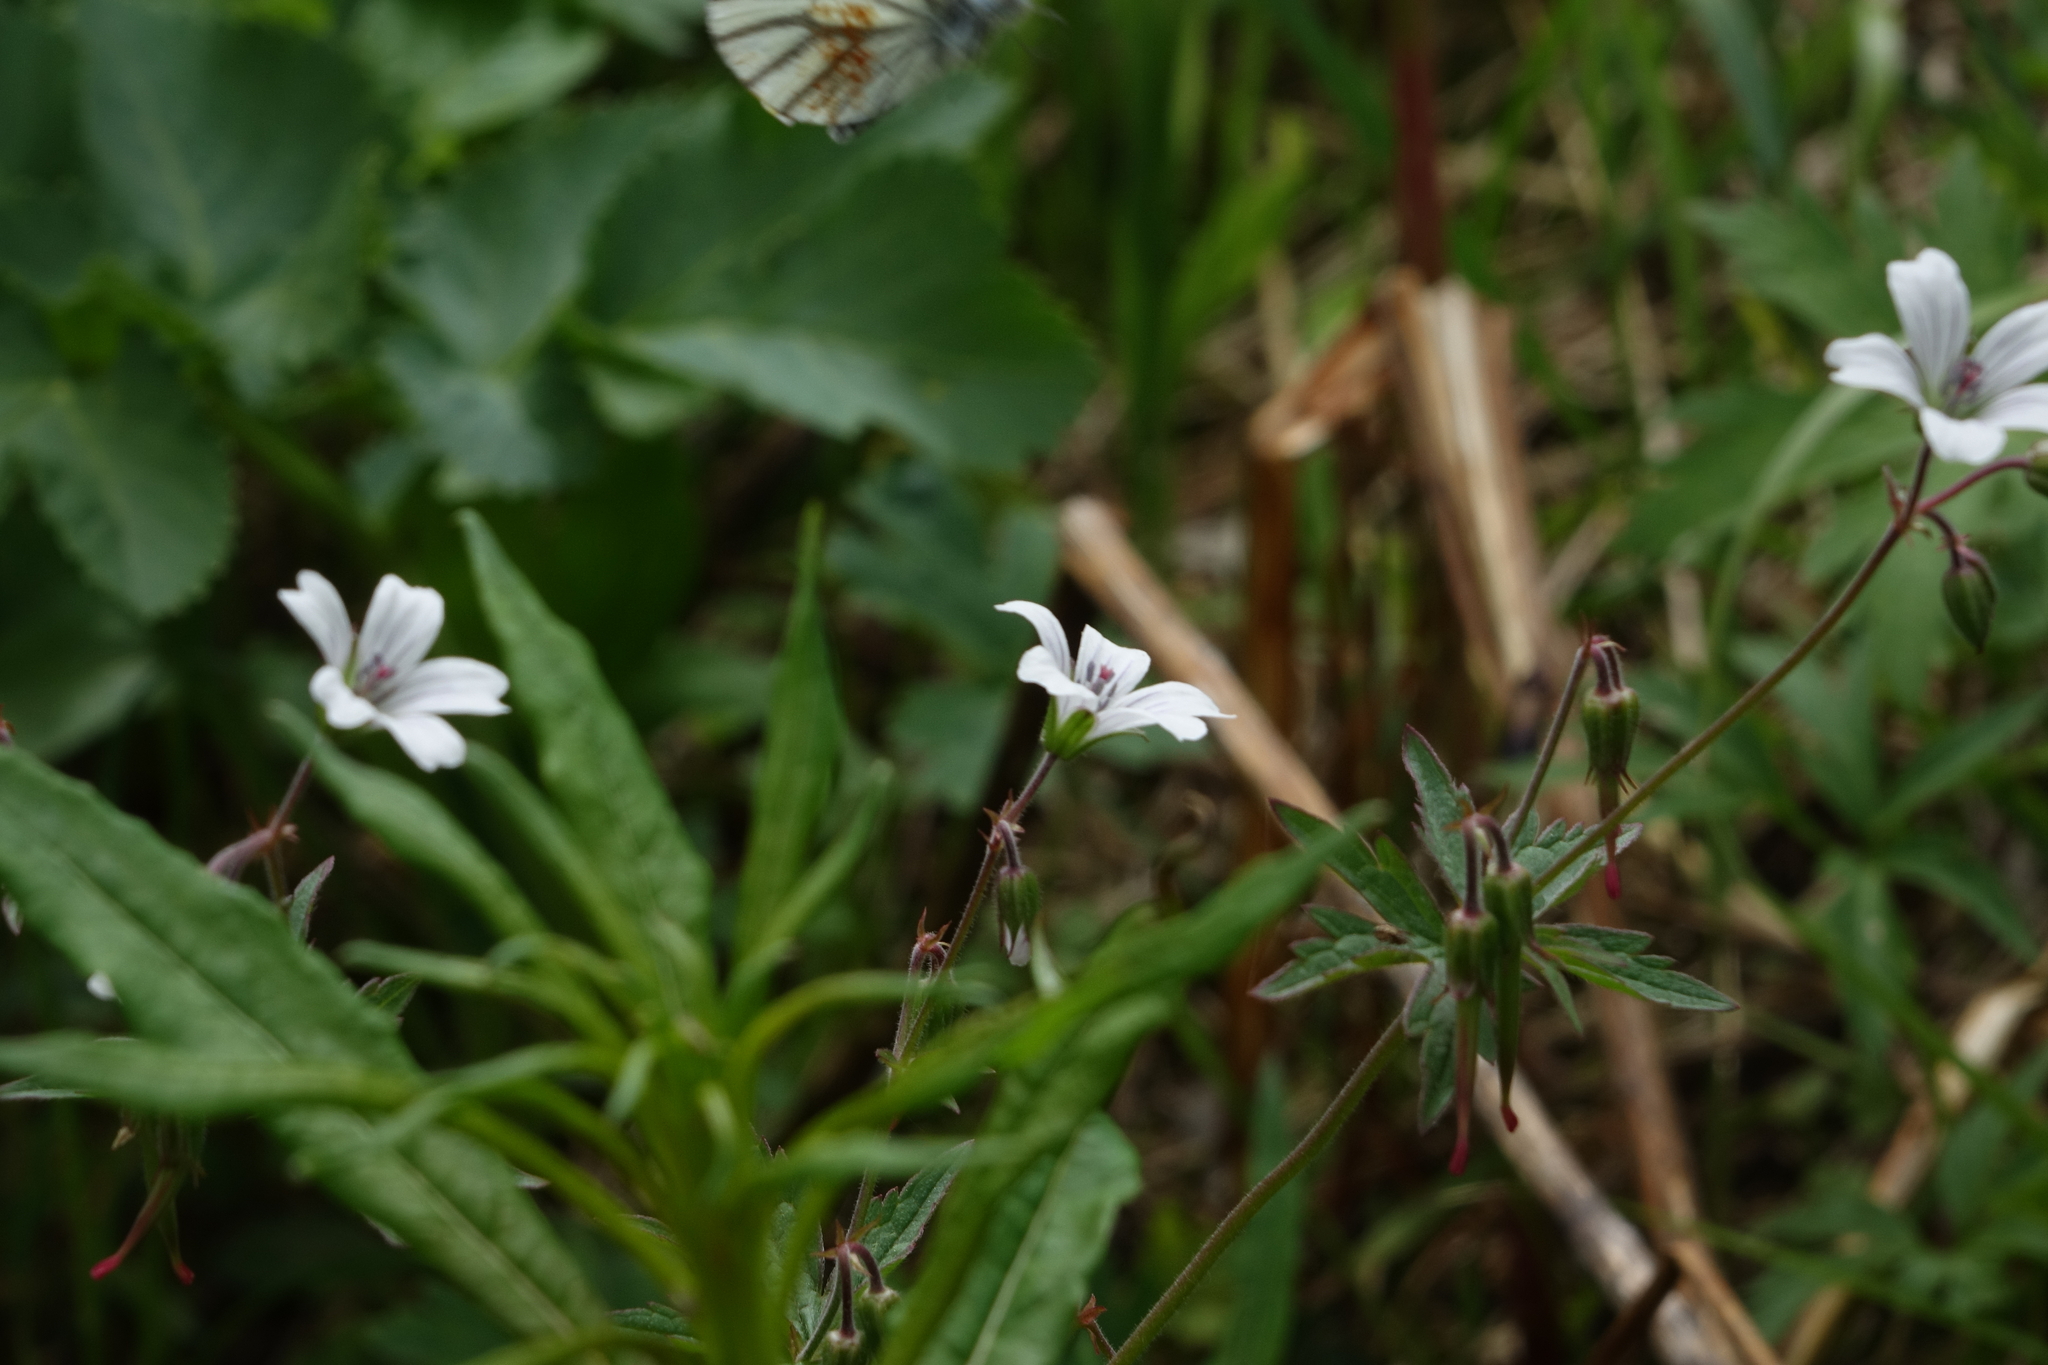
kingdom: Plantae
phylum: Tracheophyta
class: Magnoliopsida
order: Geraniales
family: Geraniaceae
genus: Geranium
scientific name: Geranium sylvaticum
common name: Wood crane's-bill
